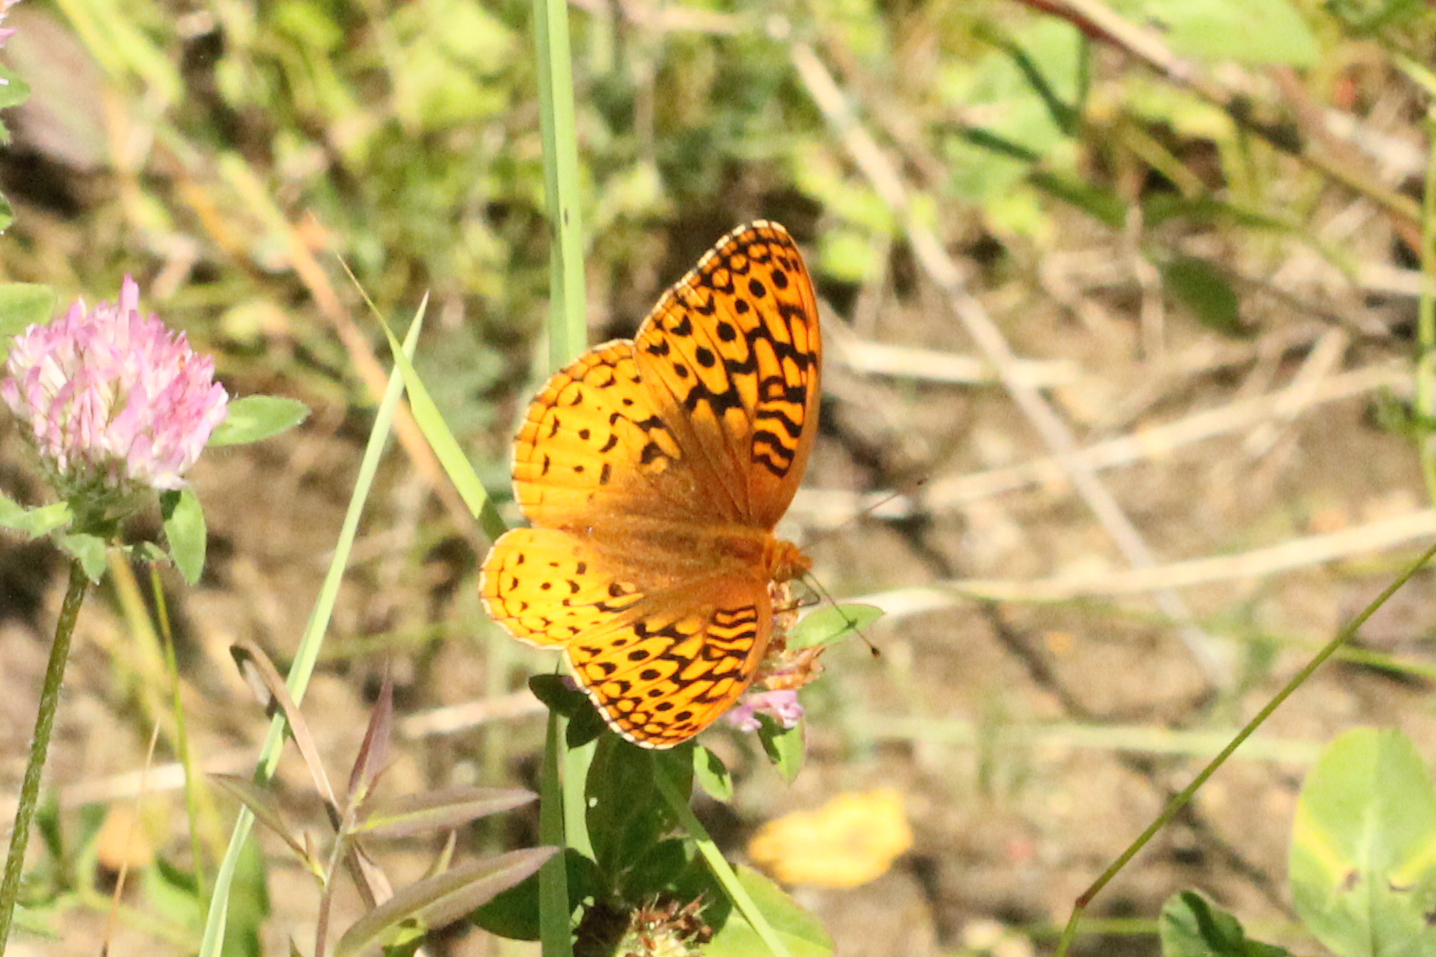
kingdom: Animalia
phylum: Arthropoda
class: Insecta
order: Lepidoptera
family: Nymphalidae
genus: Speyeria
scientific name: Speyeria cybele
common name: Great spangled fritillary
